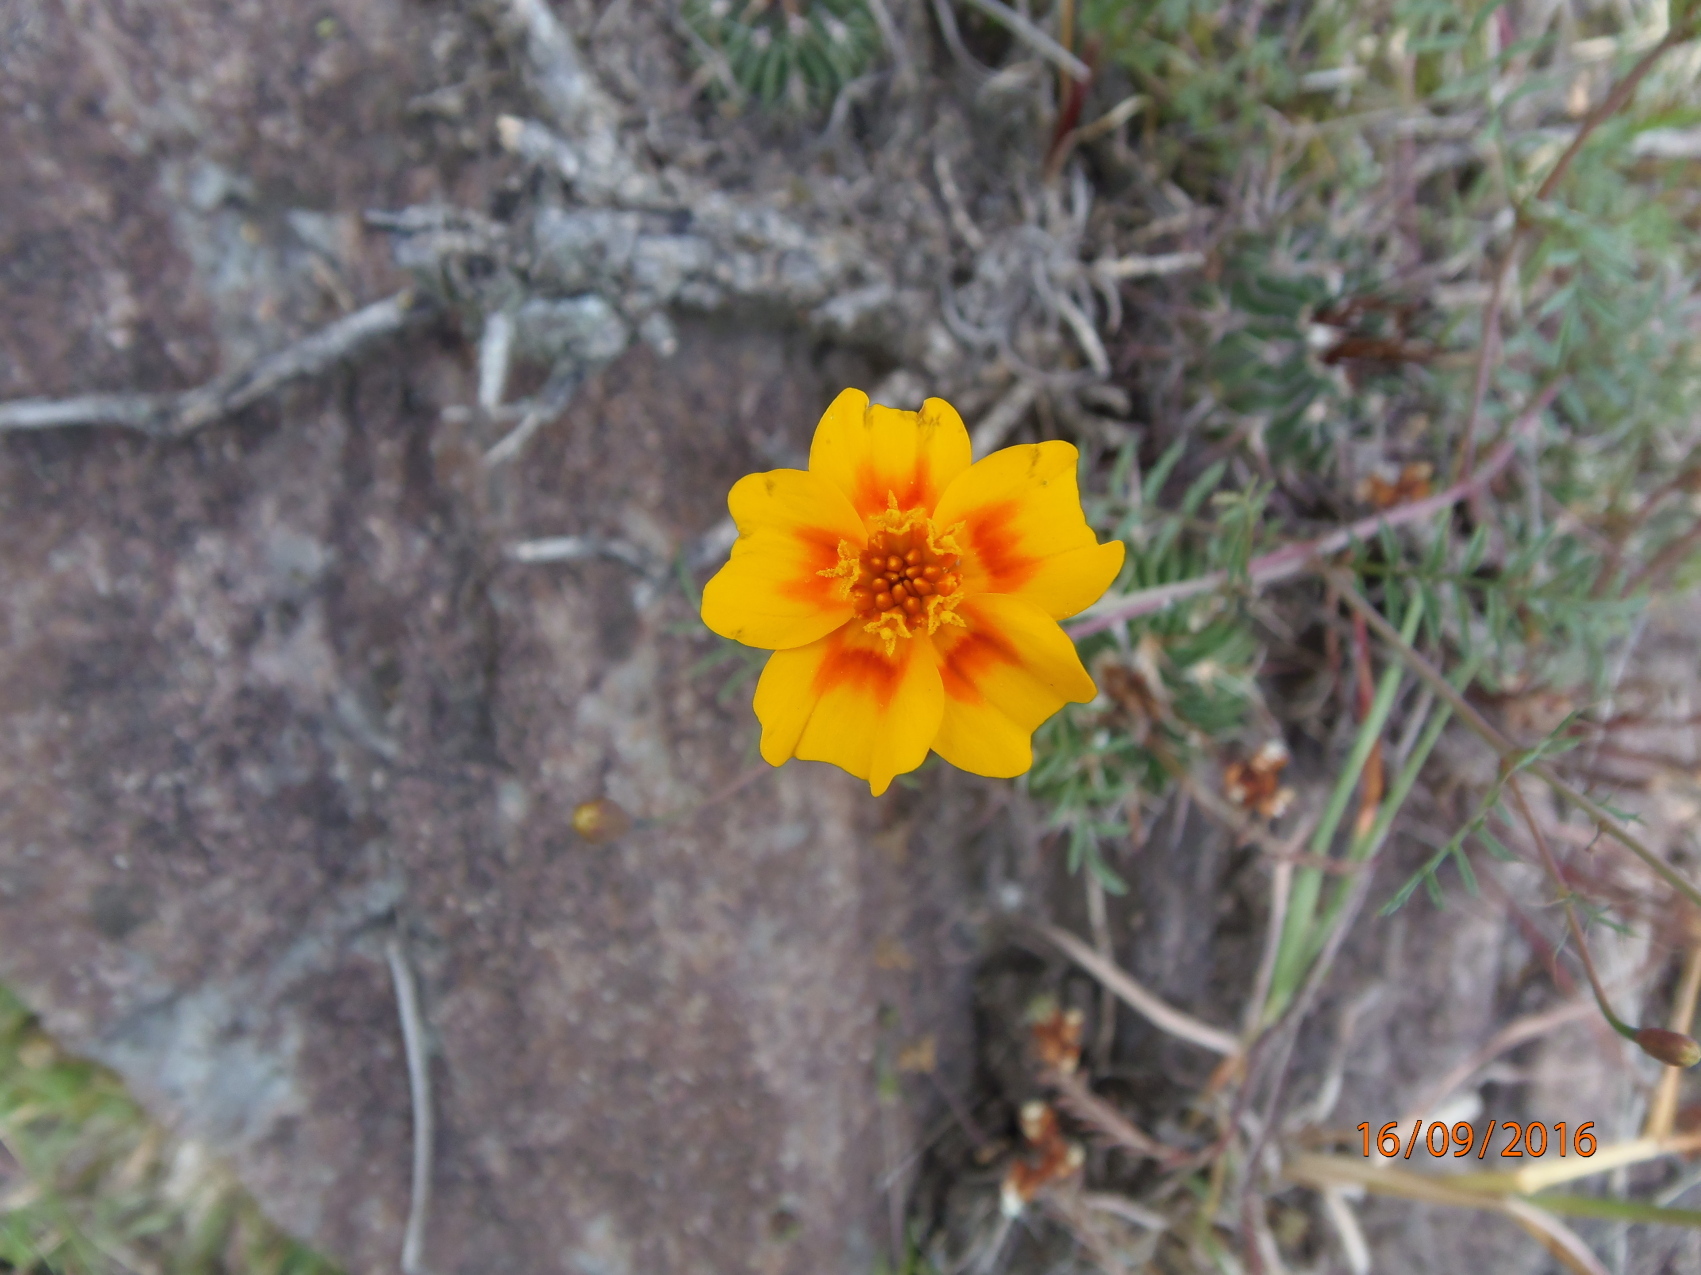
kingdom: Plantae
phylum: Tracheophyta
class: Magnoliopsida
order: Asterales
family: Asteraceae
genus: Tagetes
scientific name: Tagetes lunulata
